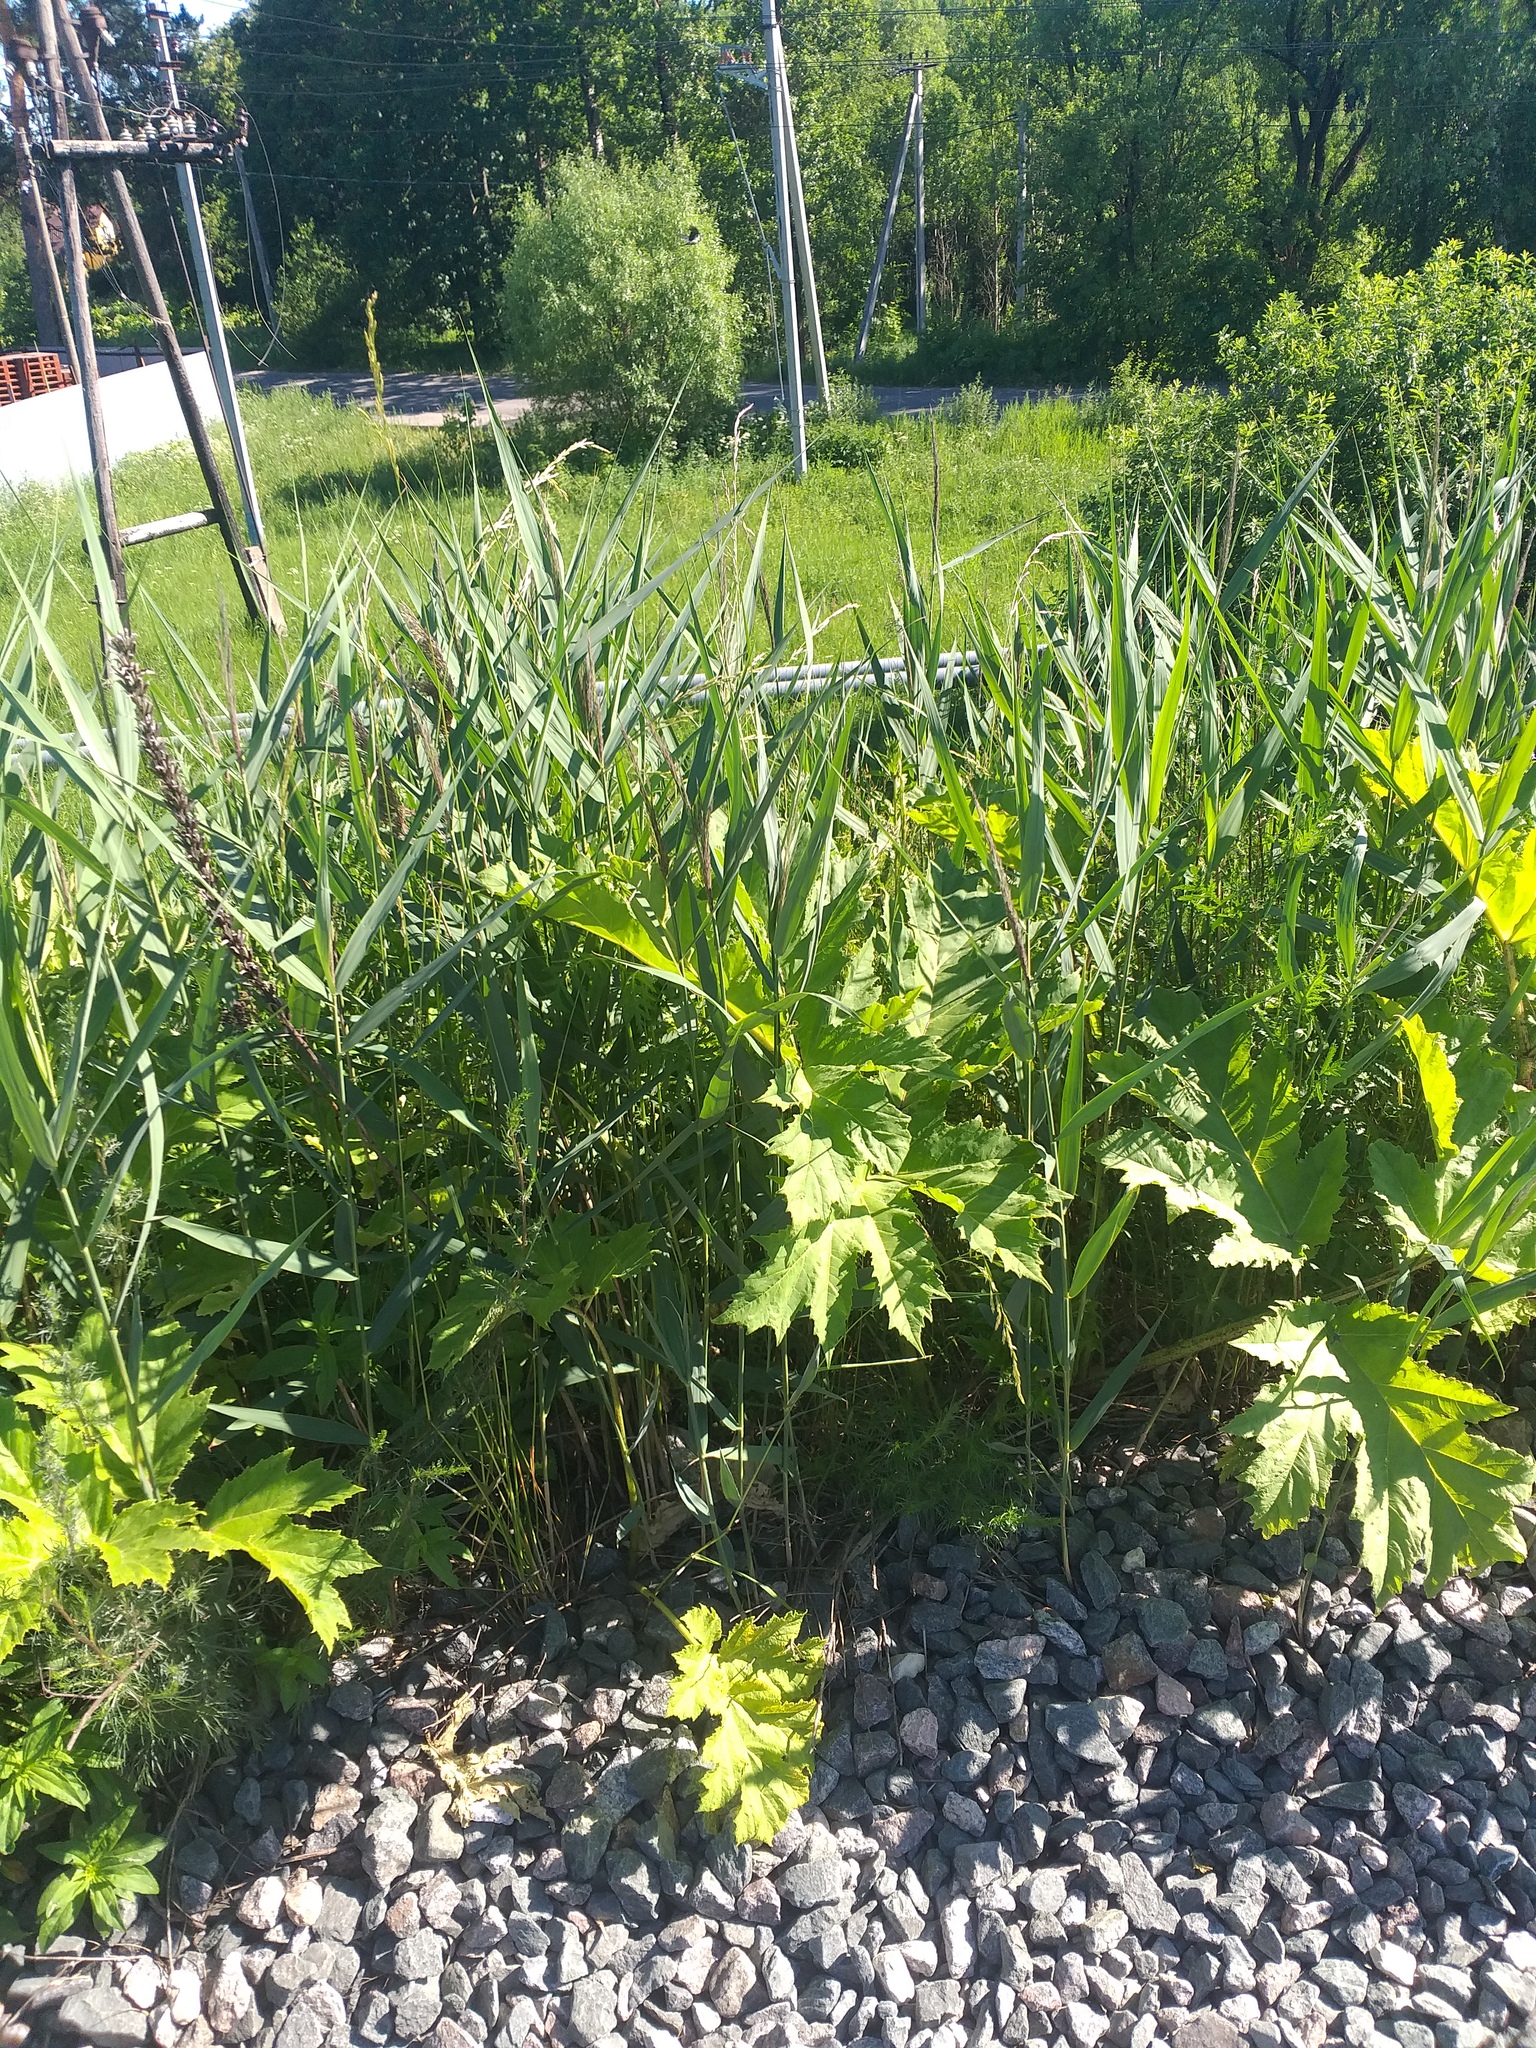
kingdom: Plantae
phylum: Tracheophyta
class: Magnoliopsida
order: Apiales
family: Apiaceae
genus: Heracleum
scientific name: Heracleum sosnowskyi
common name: Sosnowsky's hogweed
